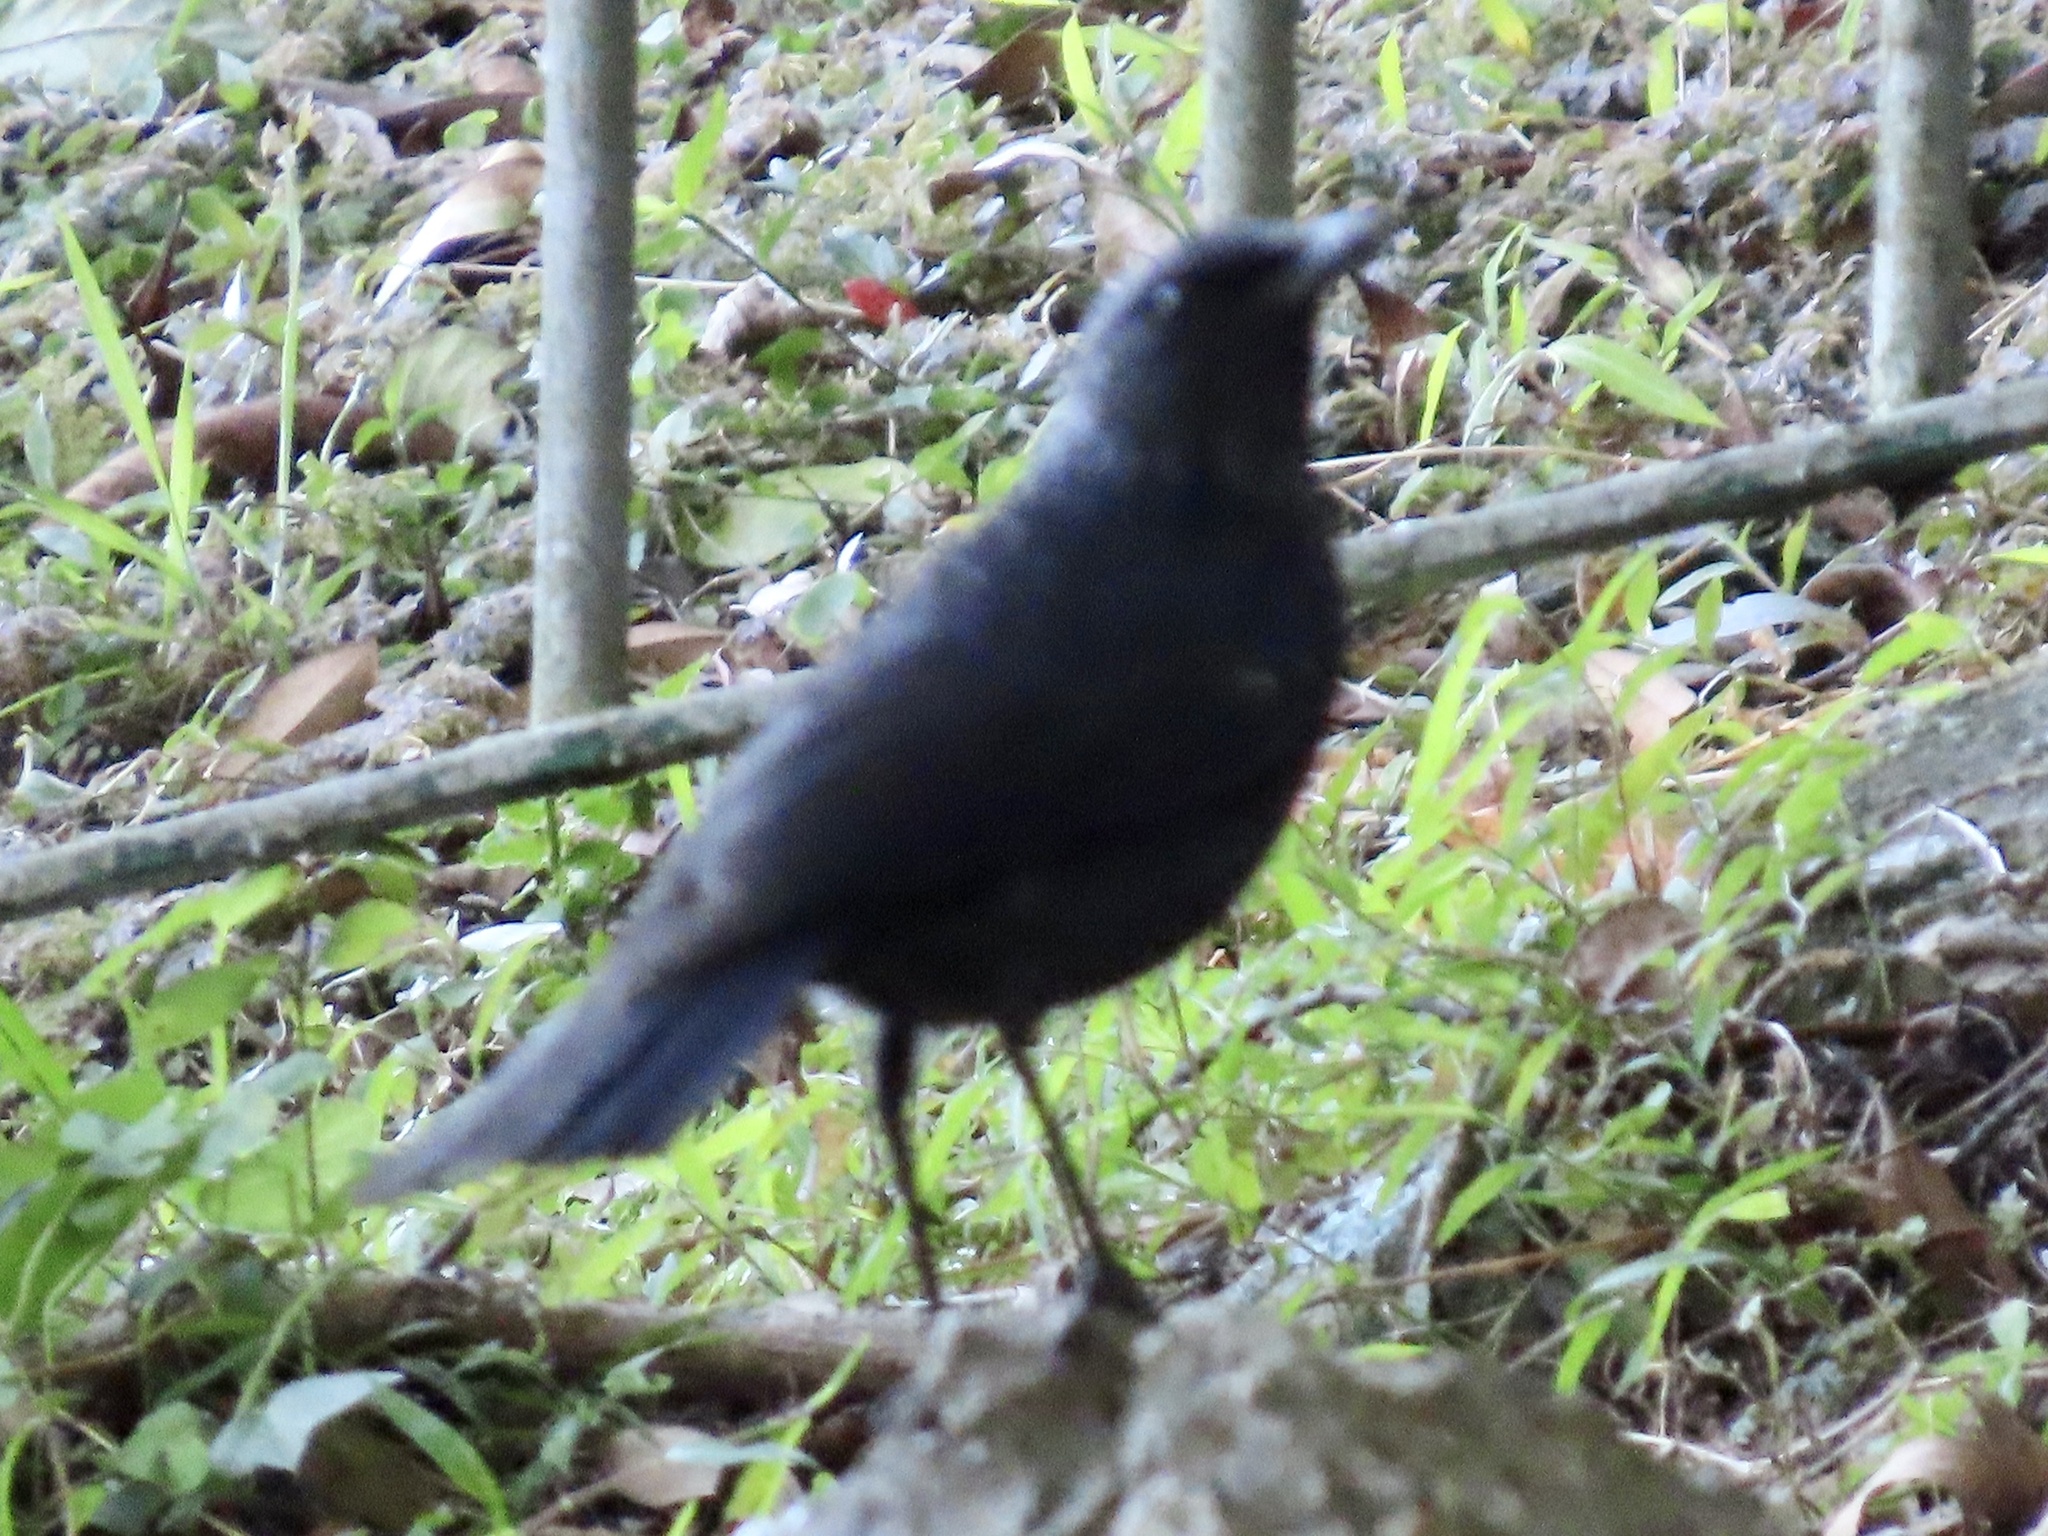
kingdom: Animalia
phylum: Chordata
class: Aves
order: Passeriformes
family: Muscicapidae
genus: Myophonus
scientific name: Myophonus caeruleus
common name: Blue whistling-thrush
